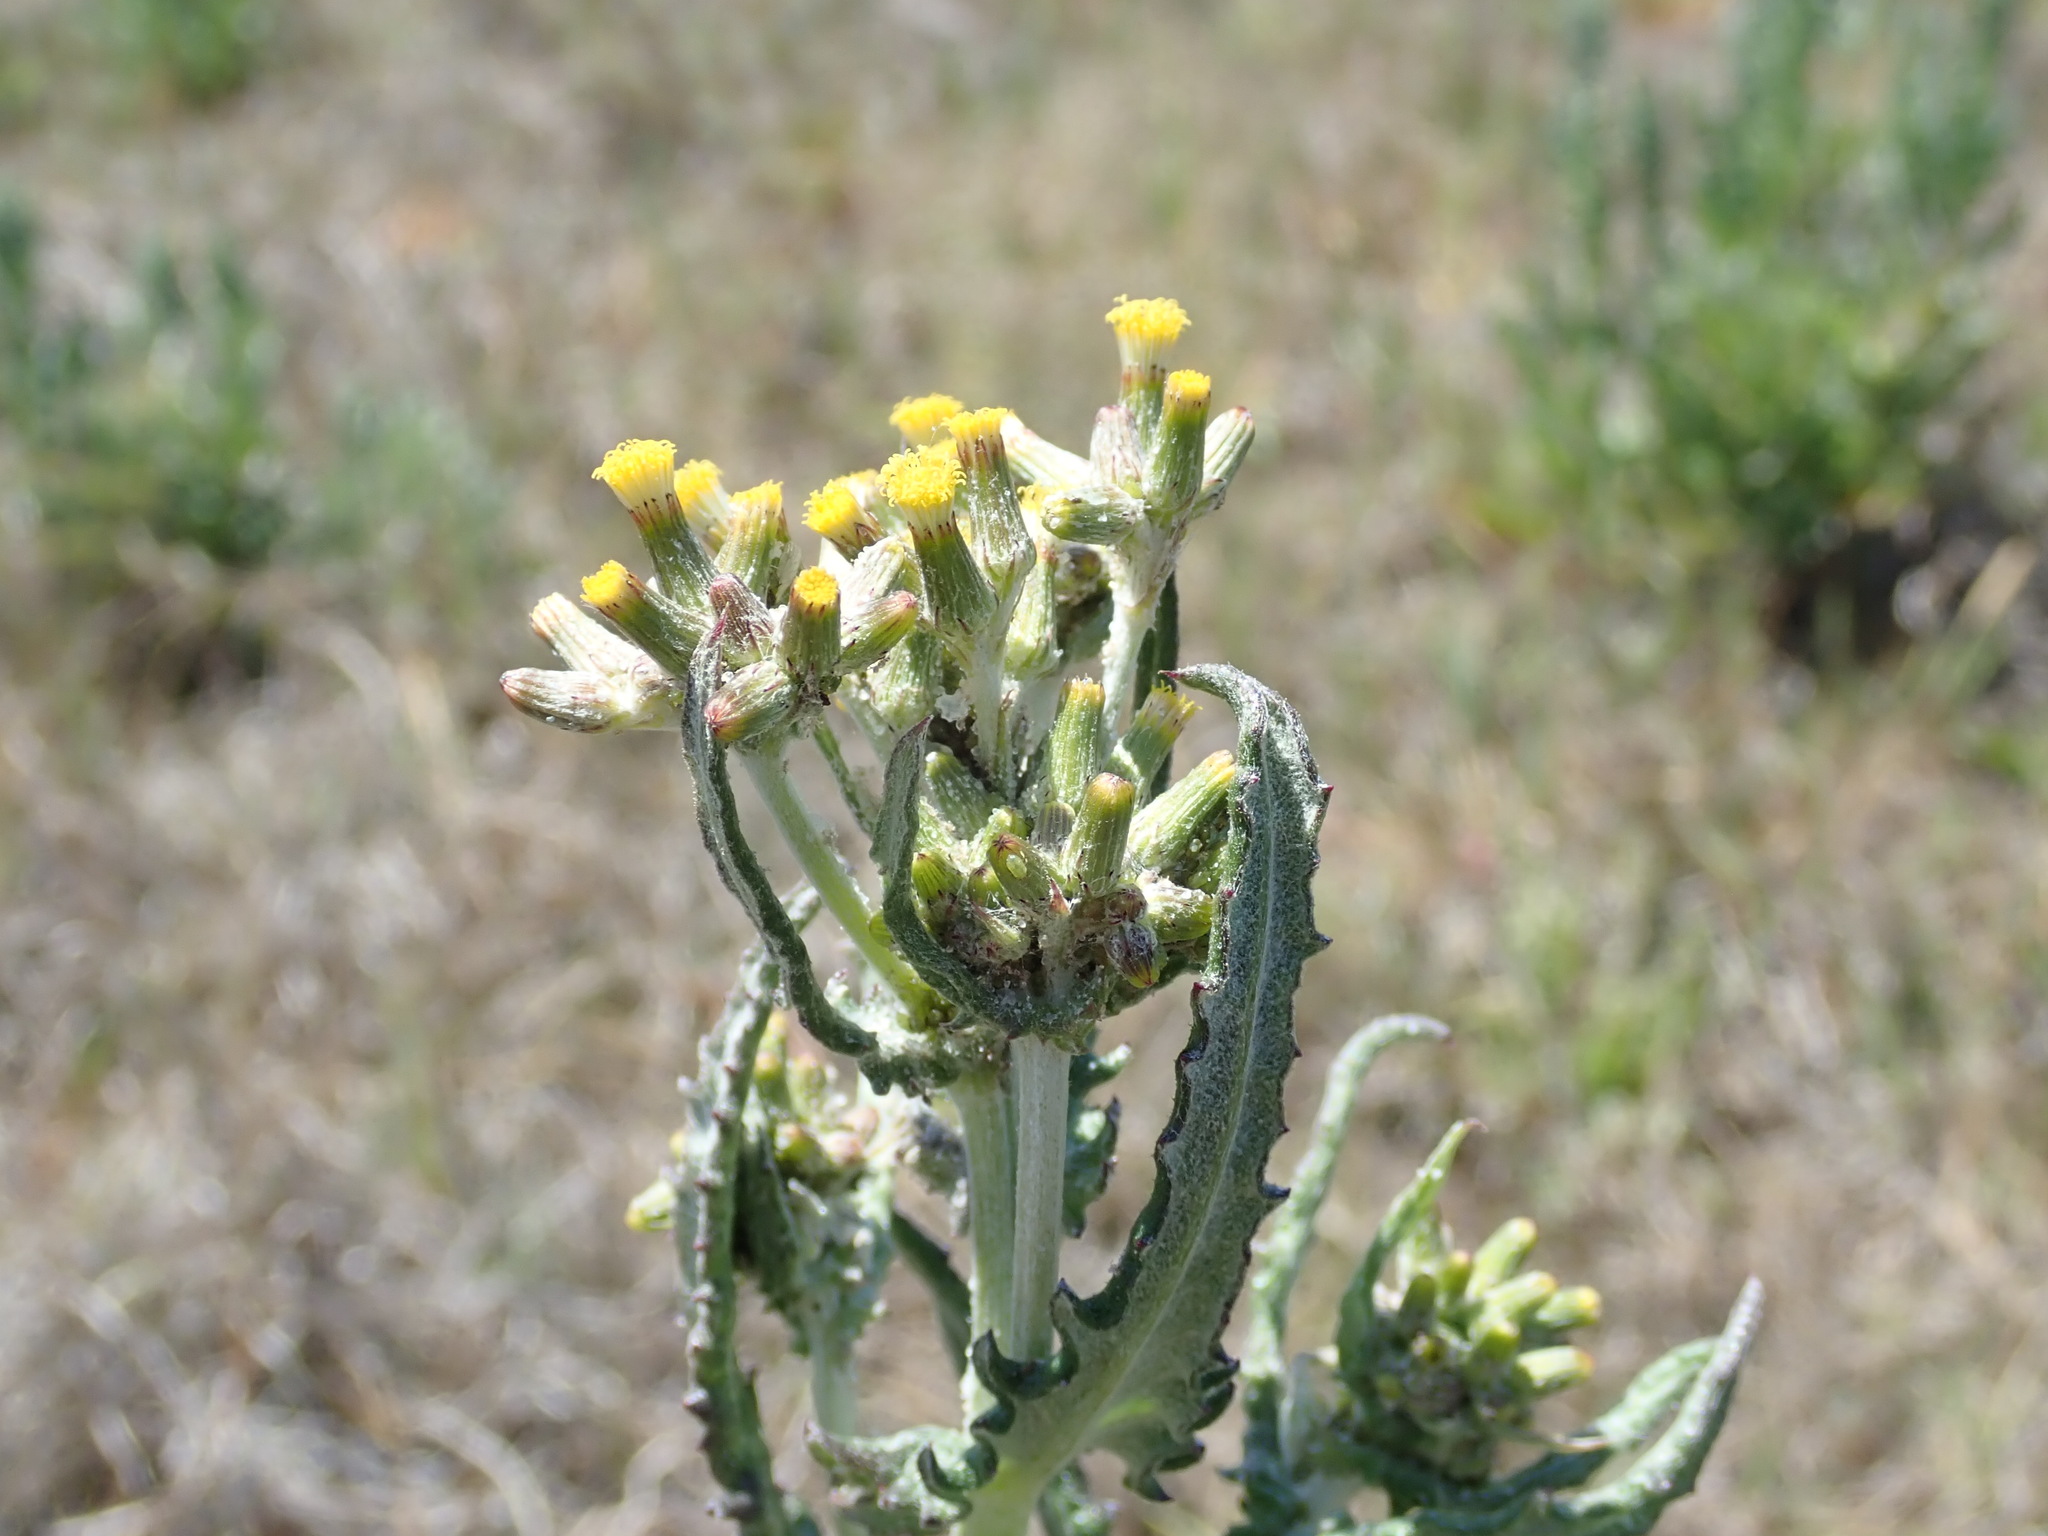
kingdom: Plantae
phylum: Tracheophyta
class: Magnoliopsida
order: Asterales
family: Asteraceae
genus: Senecio
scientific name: Senecio glomeratus
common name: Cutleaf burnweed
